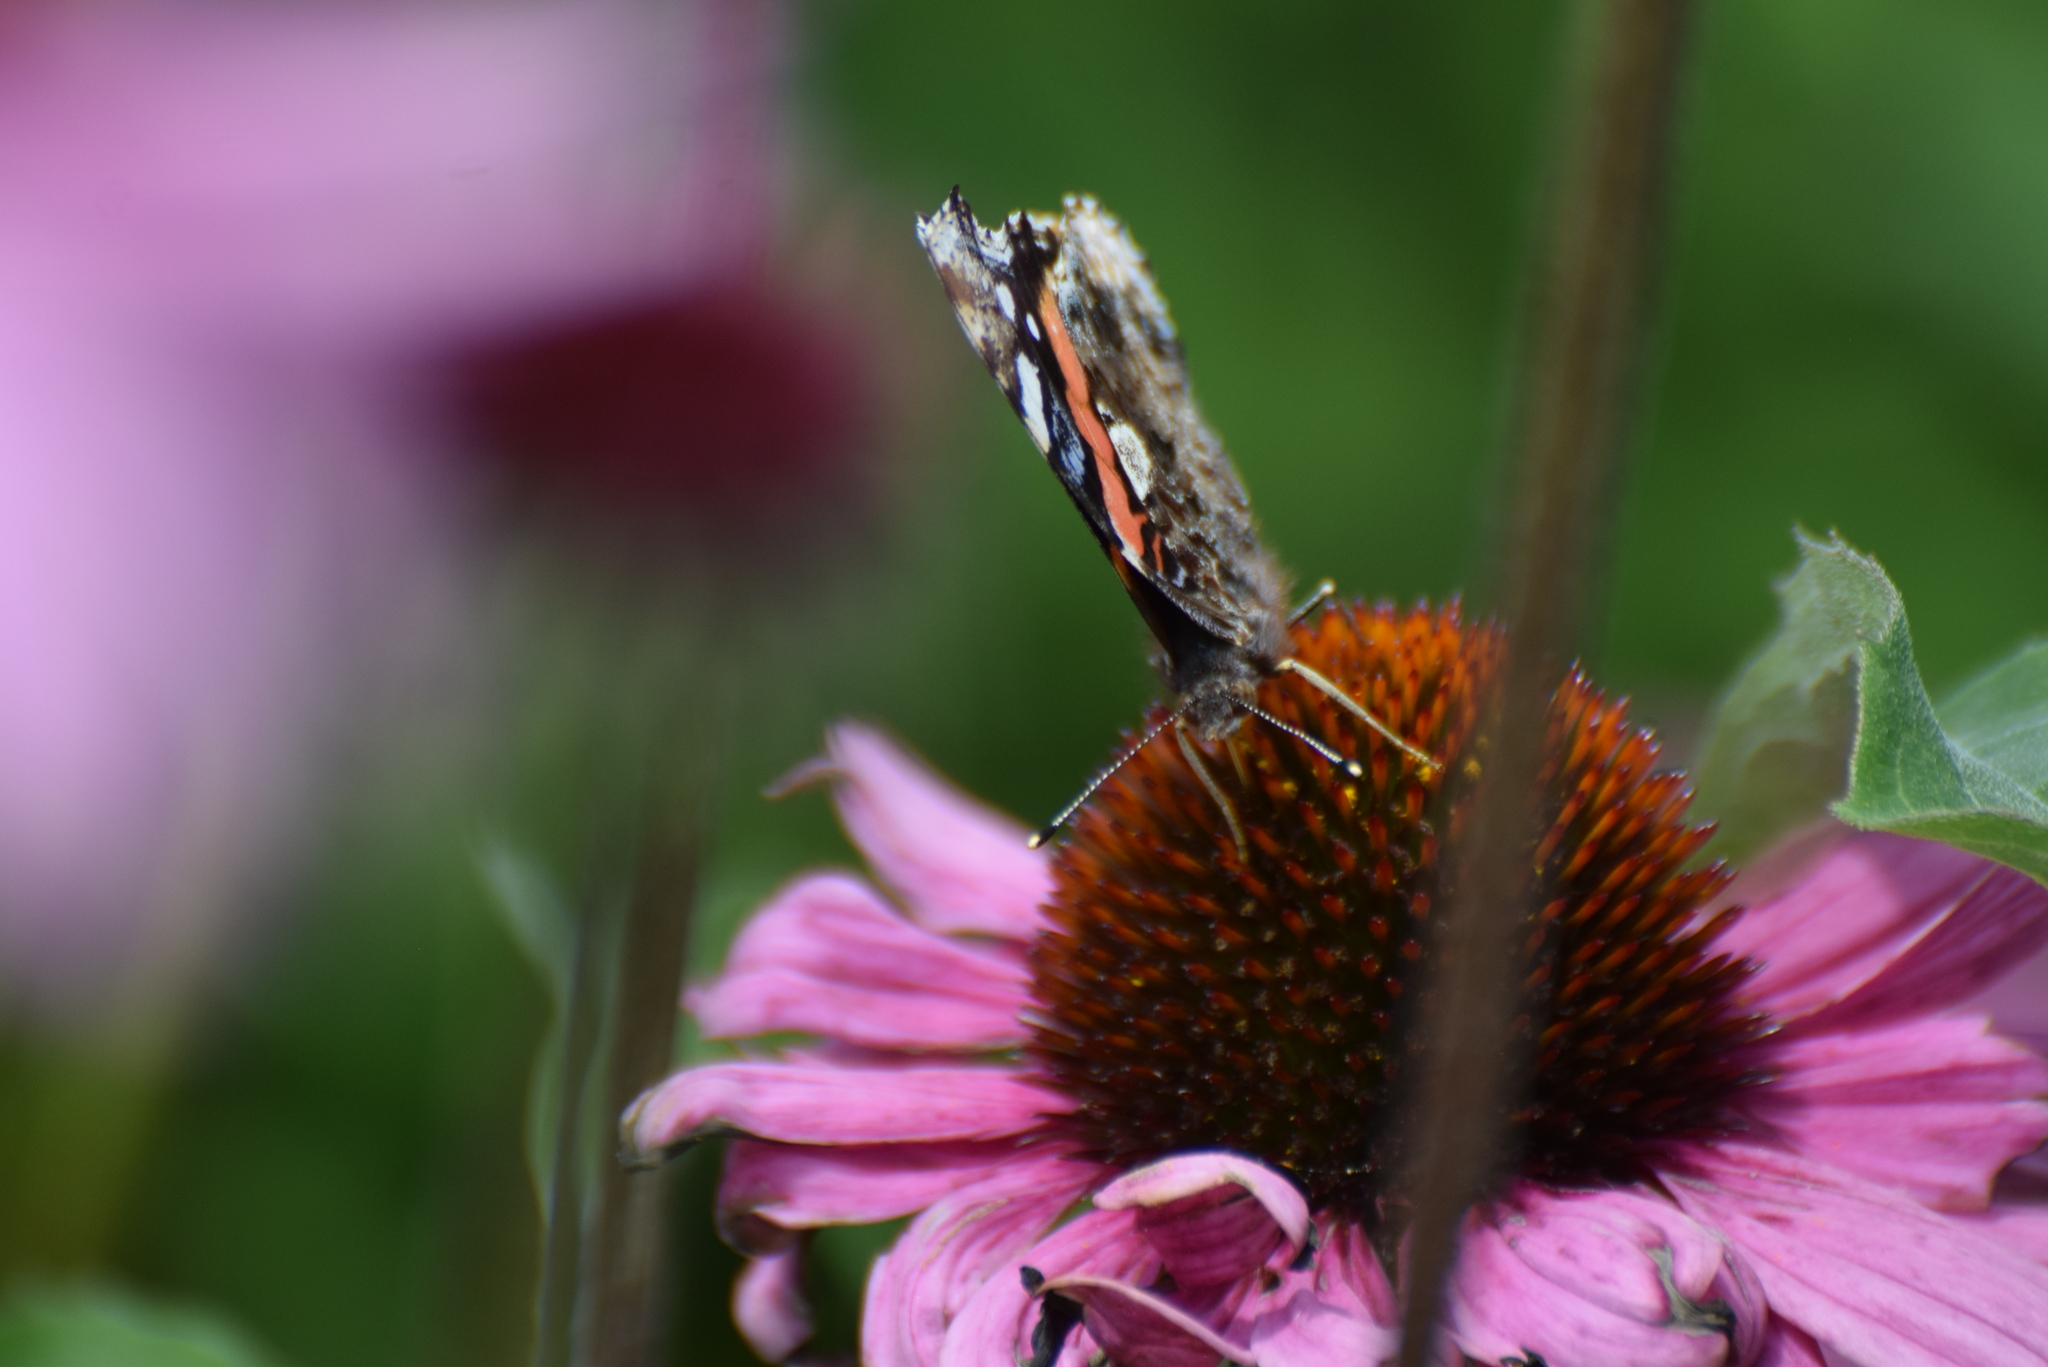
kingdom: Animalia
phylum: Arthropoda
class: Insecta
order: Lepidoptera
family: Nymphalidae
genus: Vanessa
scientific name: Vanessa atalanta
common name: Red admiral
